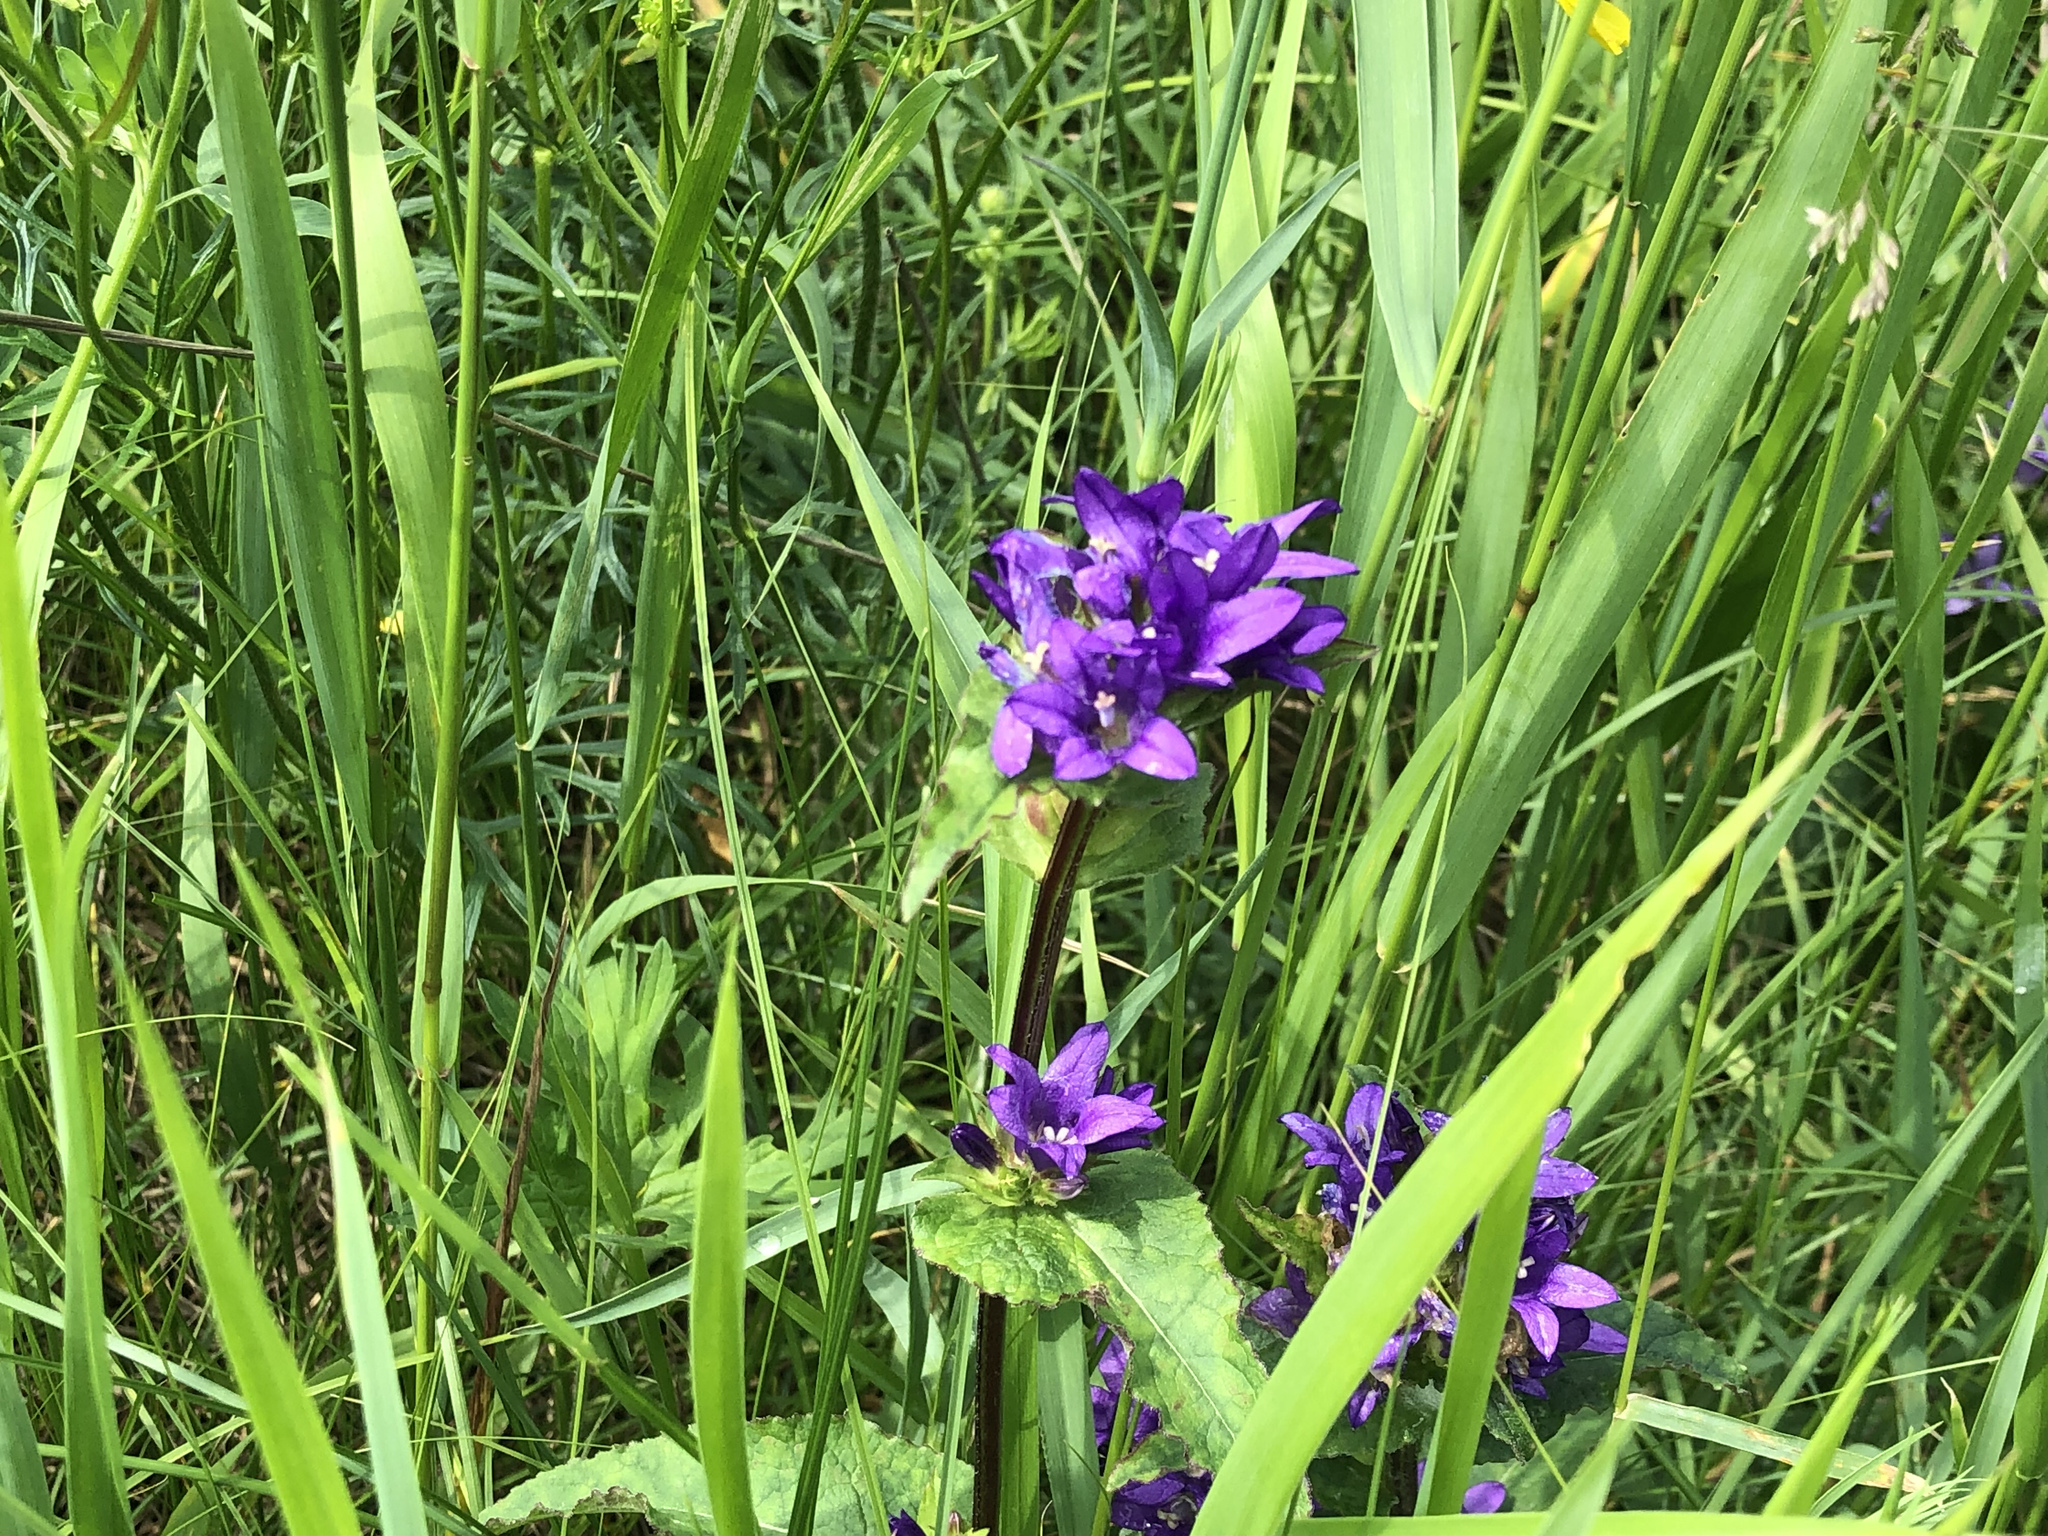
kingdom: Plantae
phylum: Tracheophyta
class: Magnoliopsida
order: Asterales
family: Campanulaceae
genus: Campanula
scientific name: Campanula glomerata
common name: Clustered bellflower
